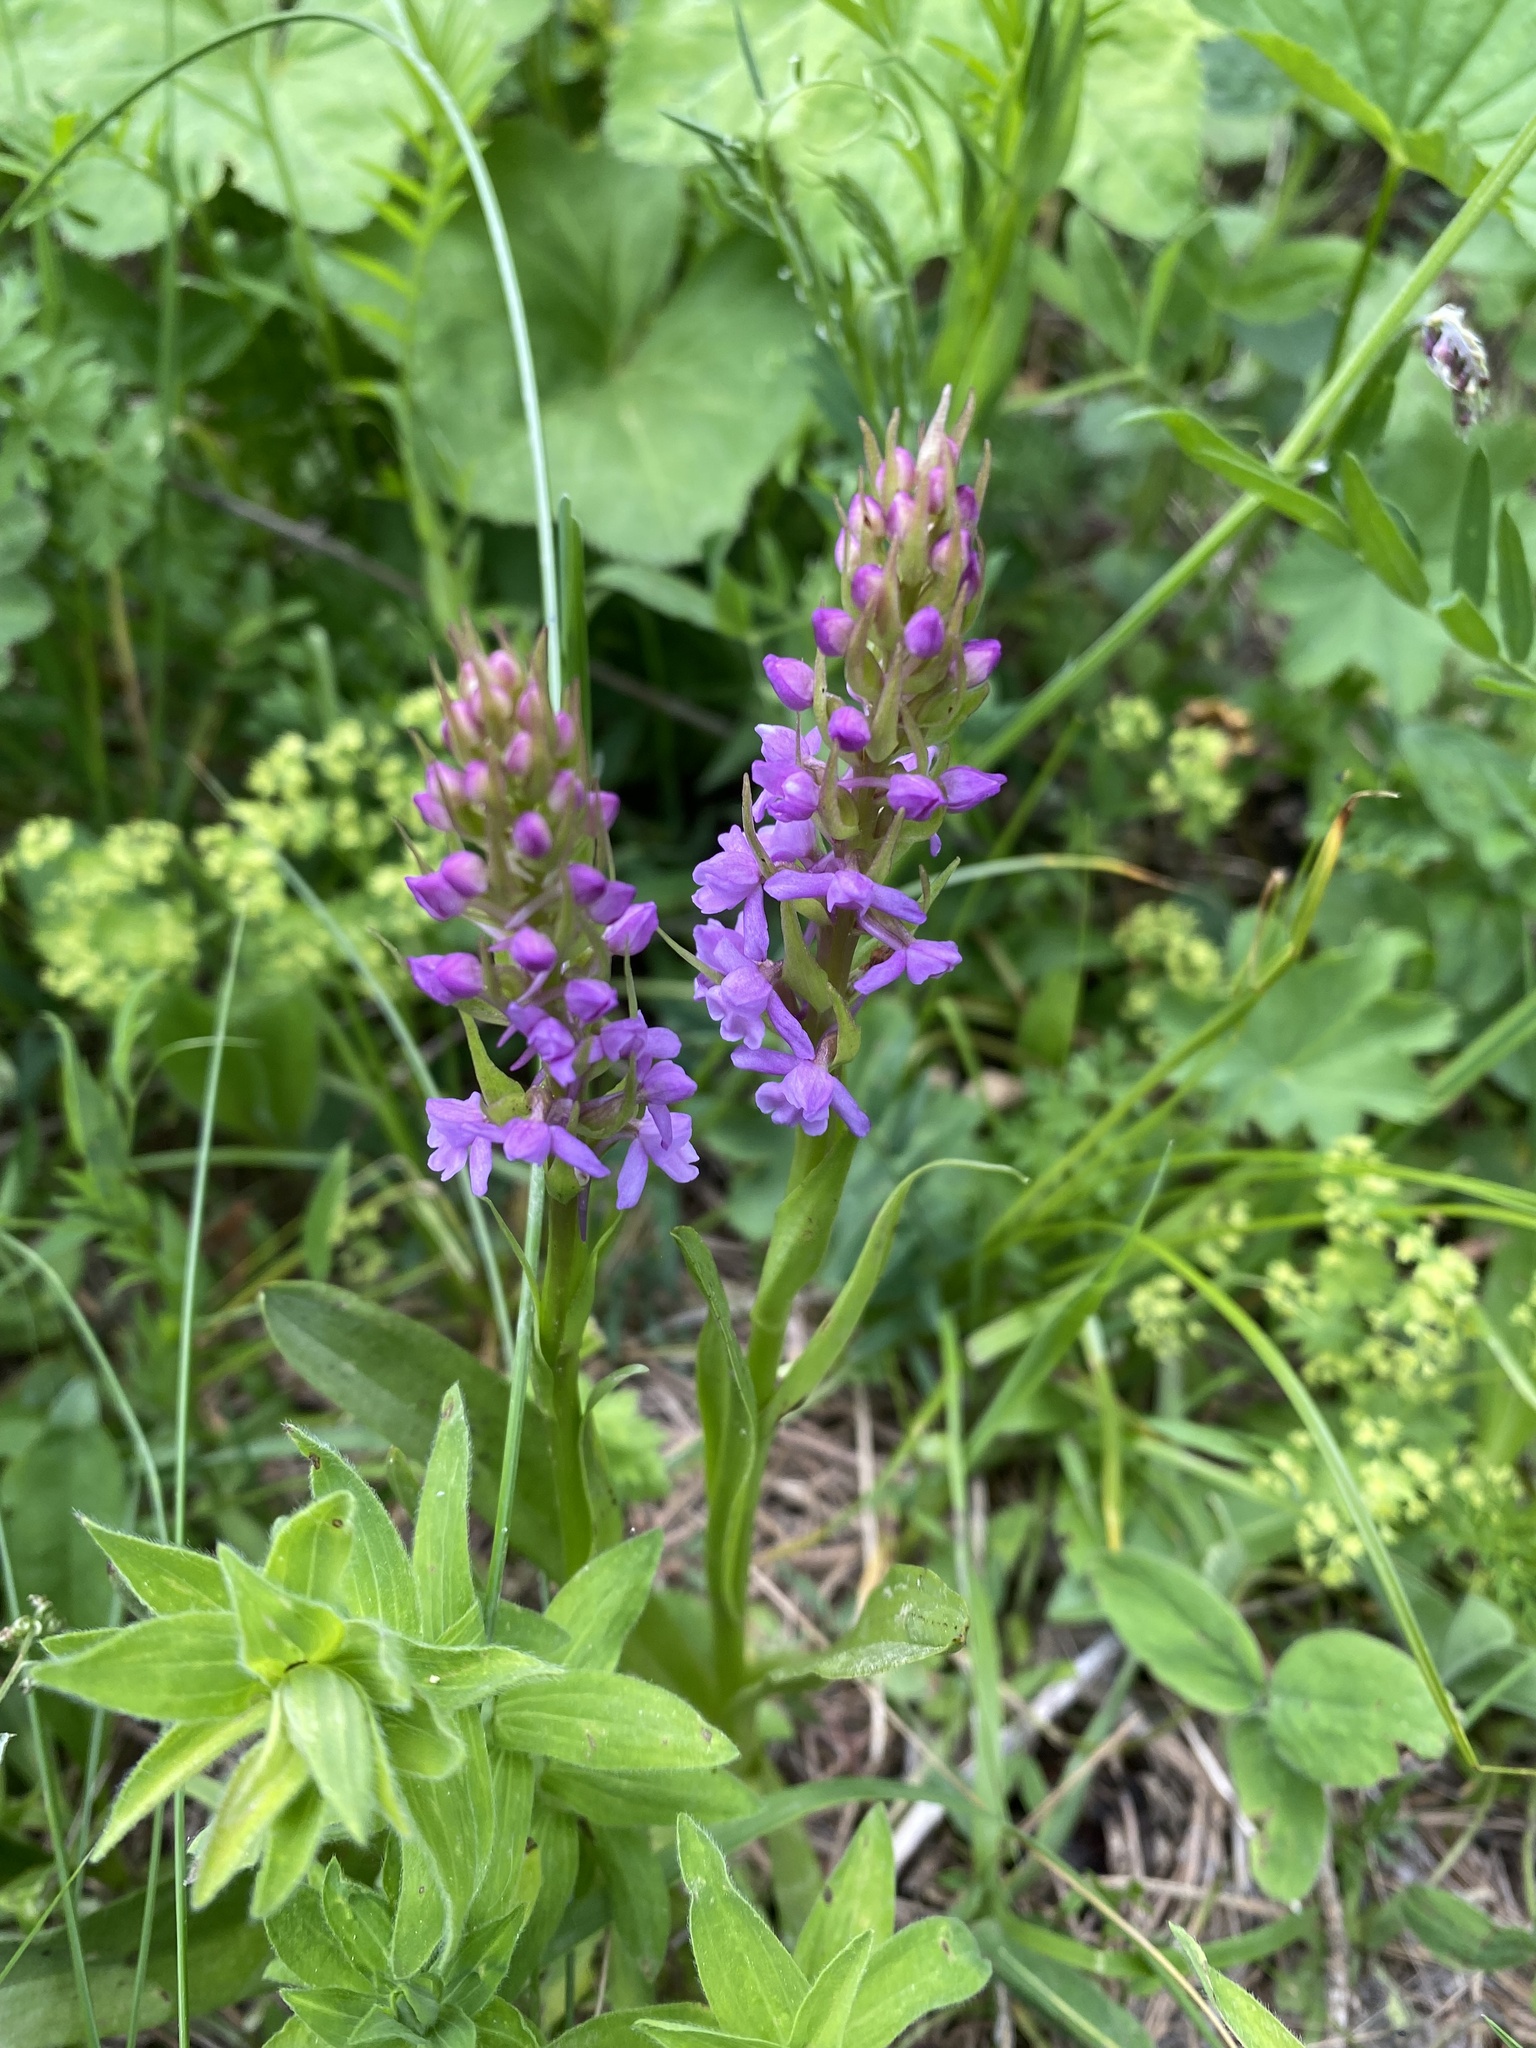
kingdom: Plantae
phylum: Tracheophyta
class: Liliopsida
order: Asparagales
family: Orchidaceae
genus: Gymnadenia
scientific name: Gymnadenia conopsea
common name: Fragrant orchid
